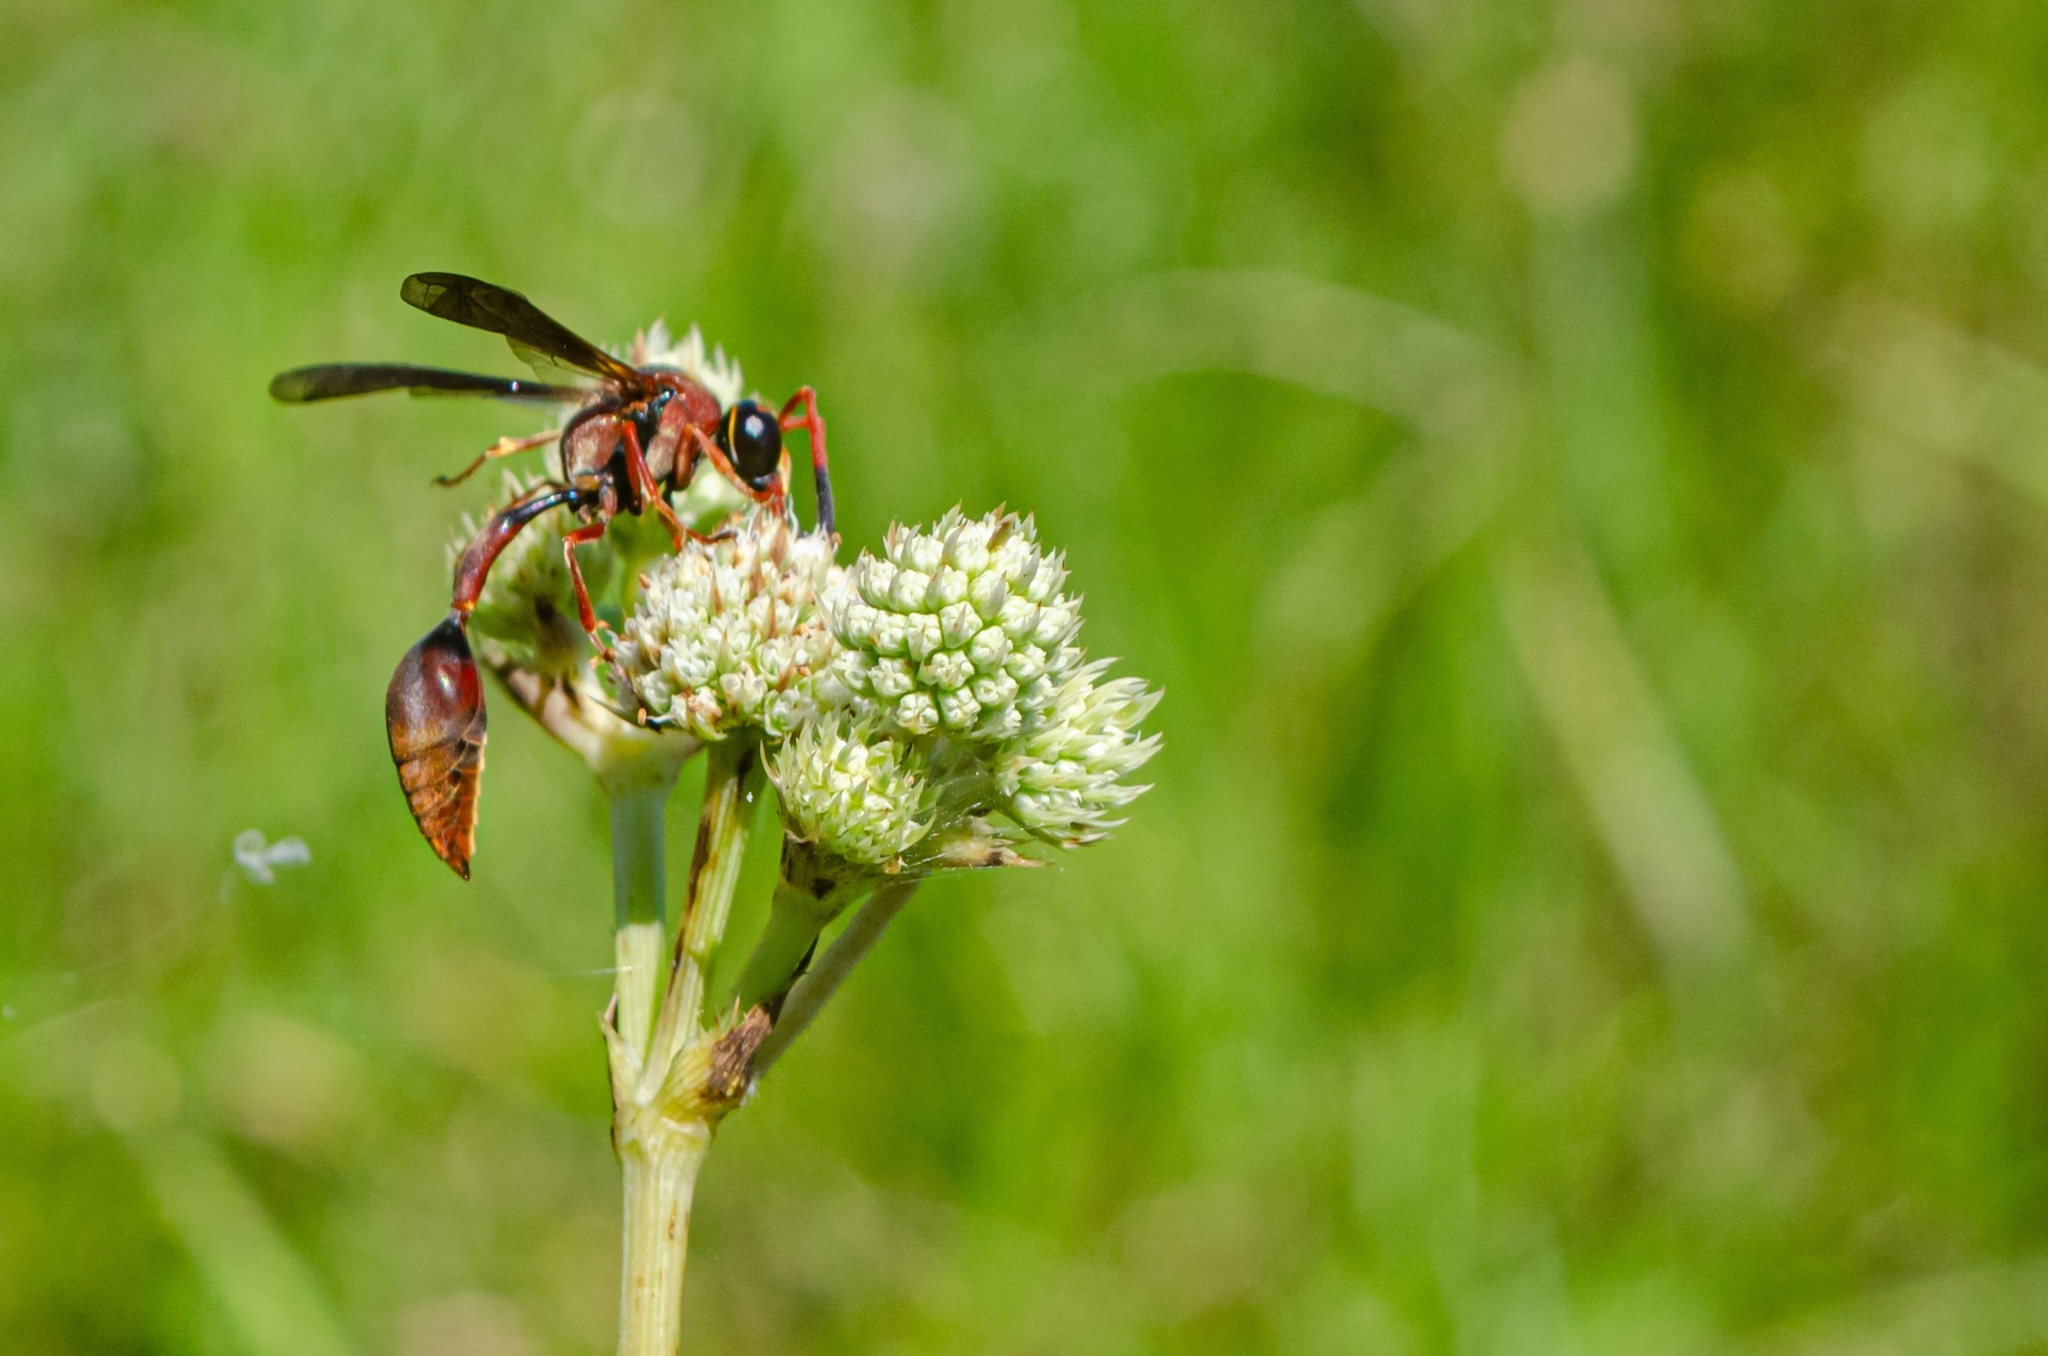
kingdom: Animalia
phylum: Arthropoda
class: Insecta
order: Hymenoptera
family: Eumenidae
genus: Zeta
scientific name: Zeta argillaceum
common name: Potter wasp
